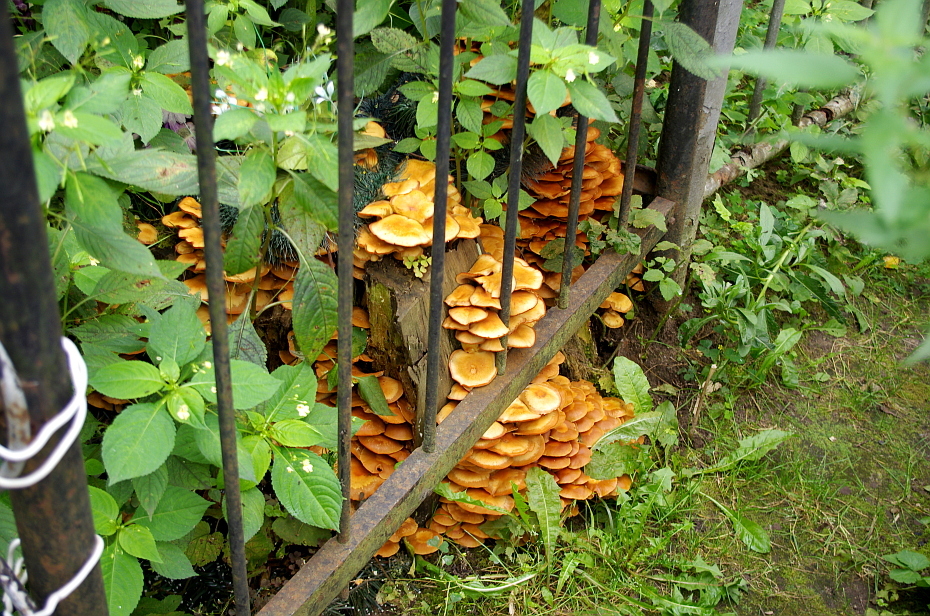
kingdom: Fungi
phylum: Basidiomycota
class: Agaricomycetes
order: Agaricales
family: Strophariaceae
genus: Kuehneromyces
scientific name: Kuehneromyces mutabilis
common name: Sheathed woodtuft
